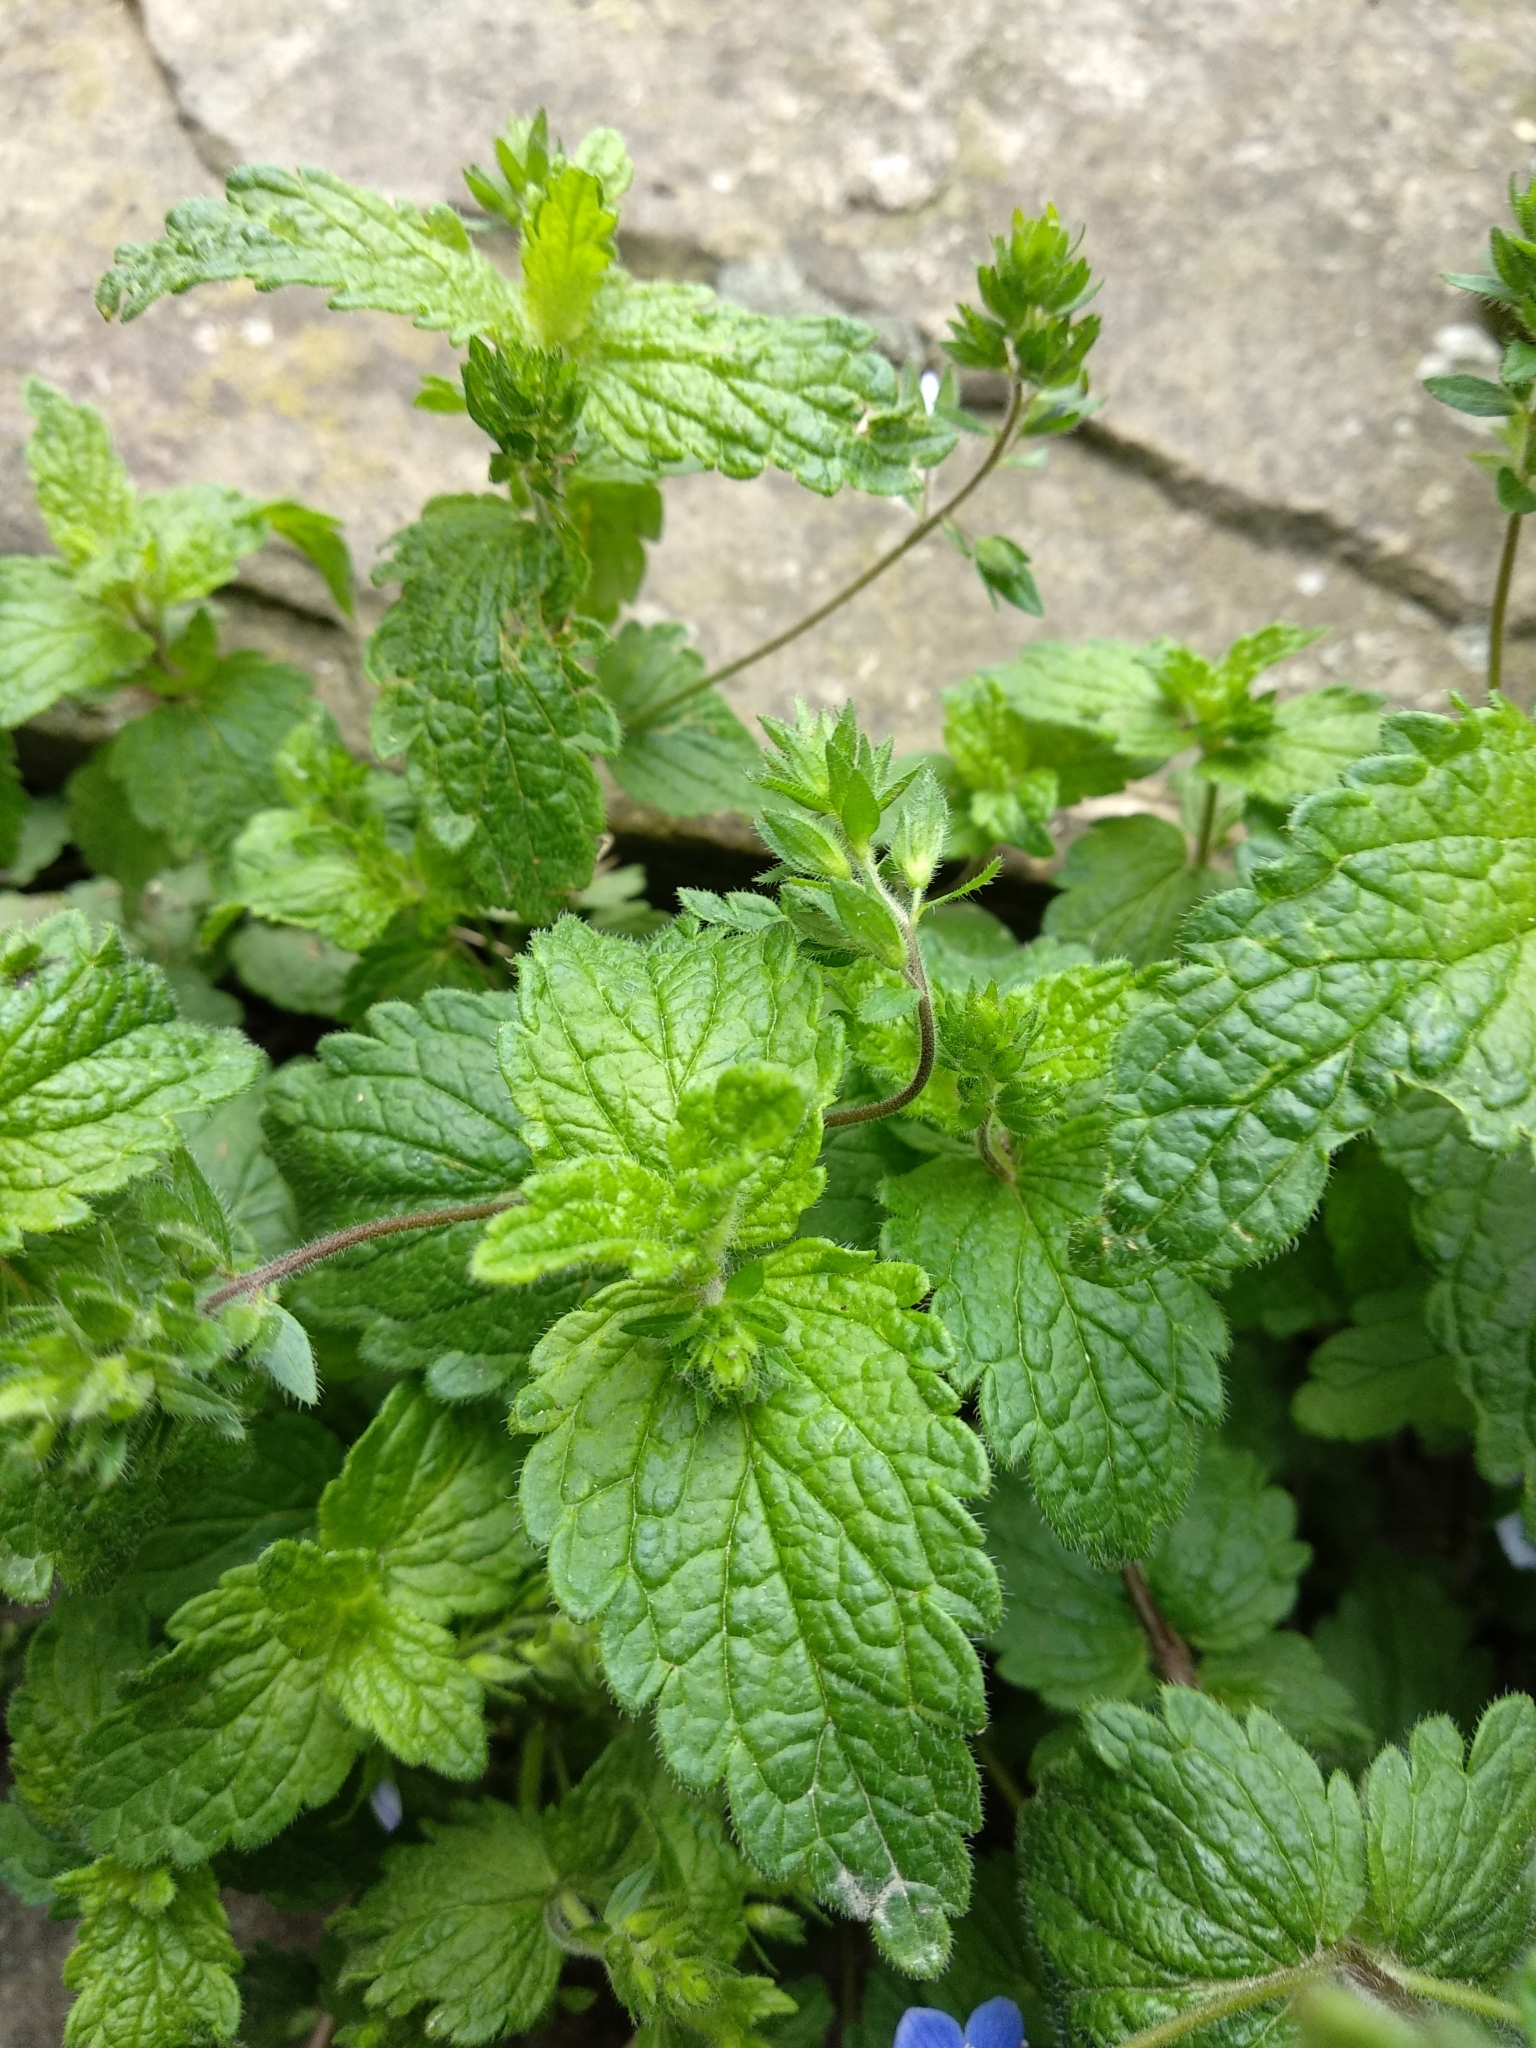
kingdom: Plantae
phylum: Tracheophyta
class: Magnoliopsida
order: Lamiales
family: Plantaginaceae
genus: Veronica
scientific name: Veronica chamaedrys
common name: Germander speedwell
